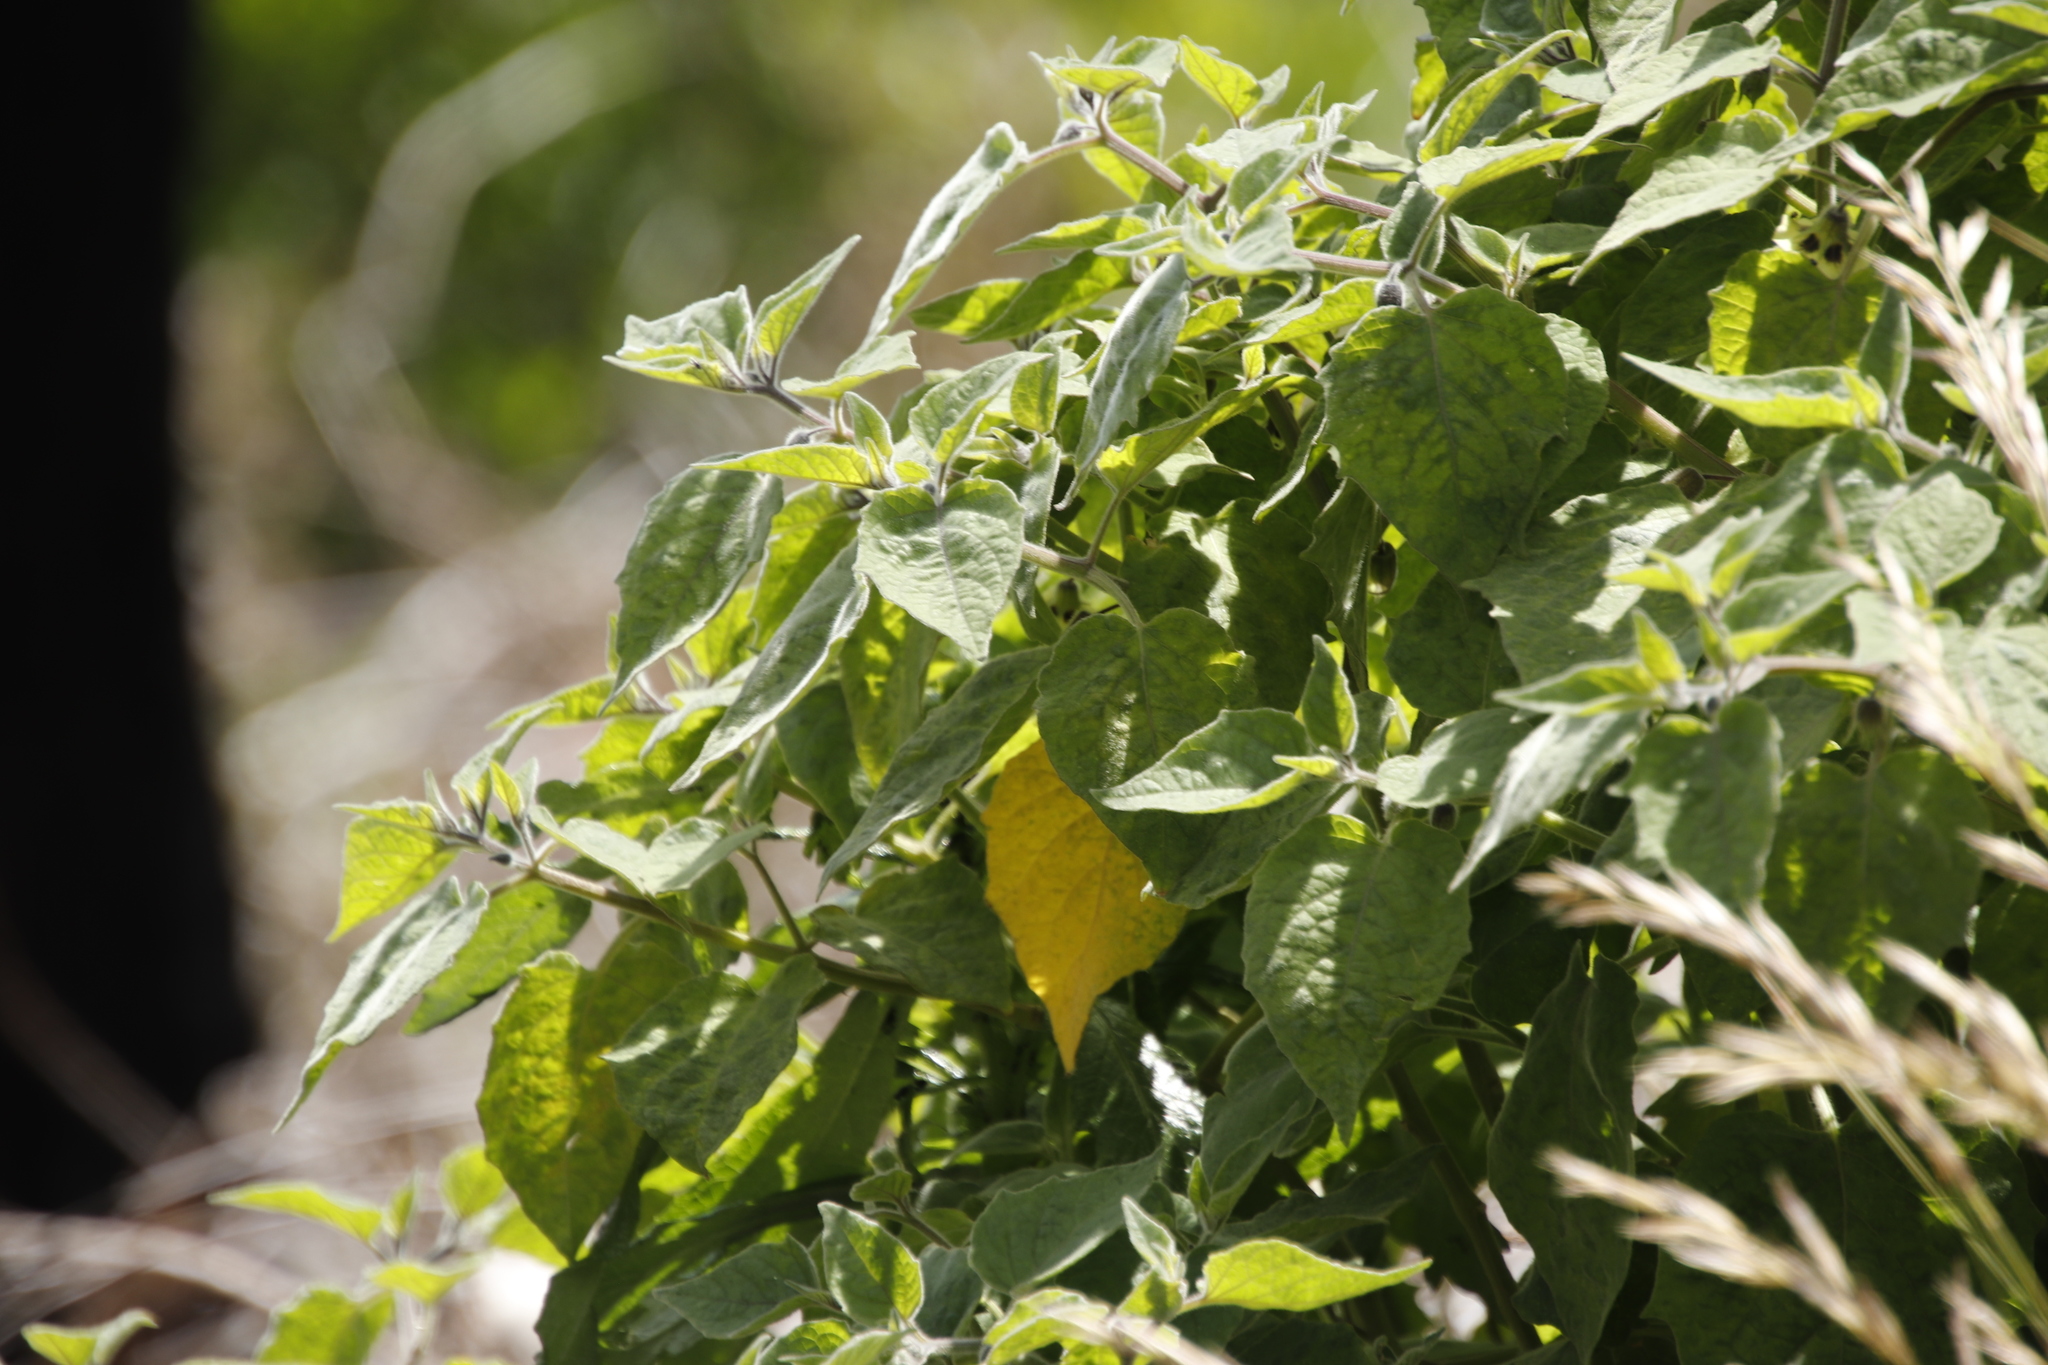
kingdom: Plantae
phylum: Tracheophyta
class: Magnoliopsida
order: Solanales
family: Solanaceae
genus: Physalis
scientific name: Physalis peruviana
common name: Cape-gooseberry
